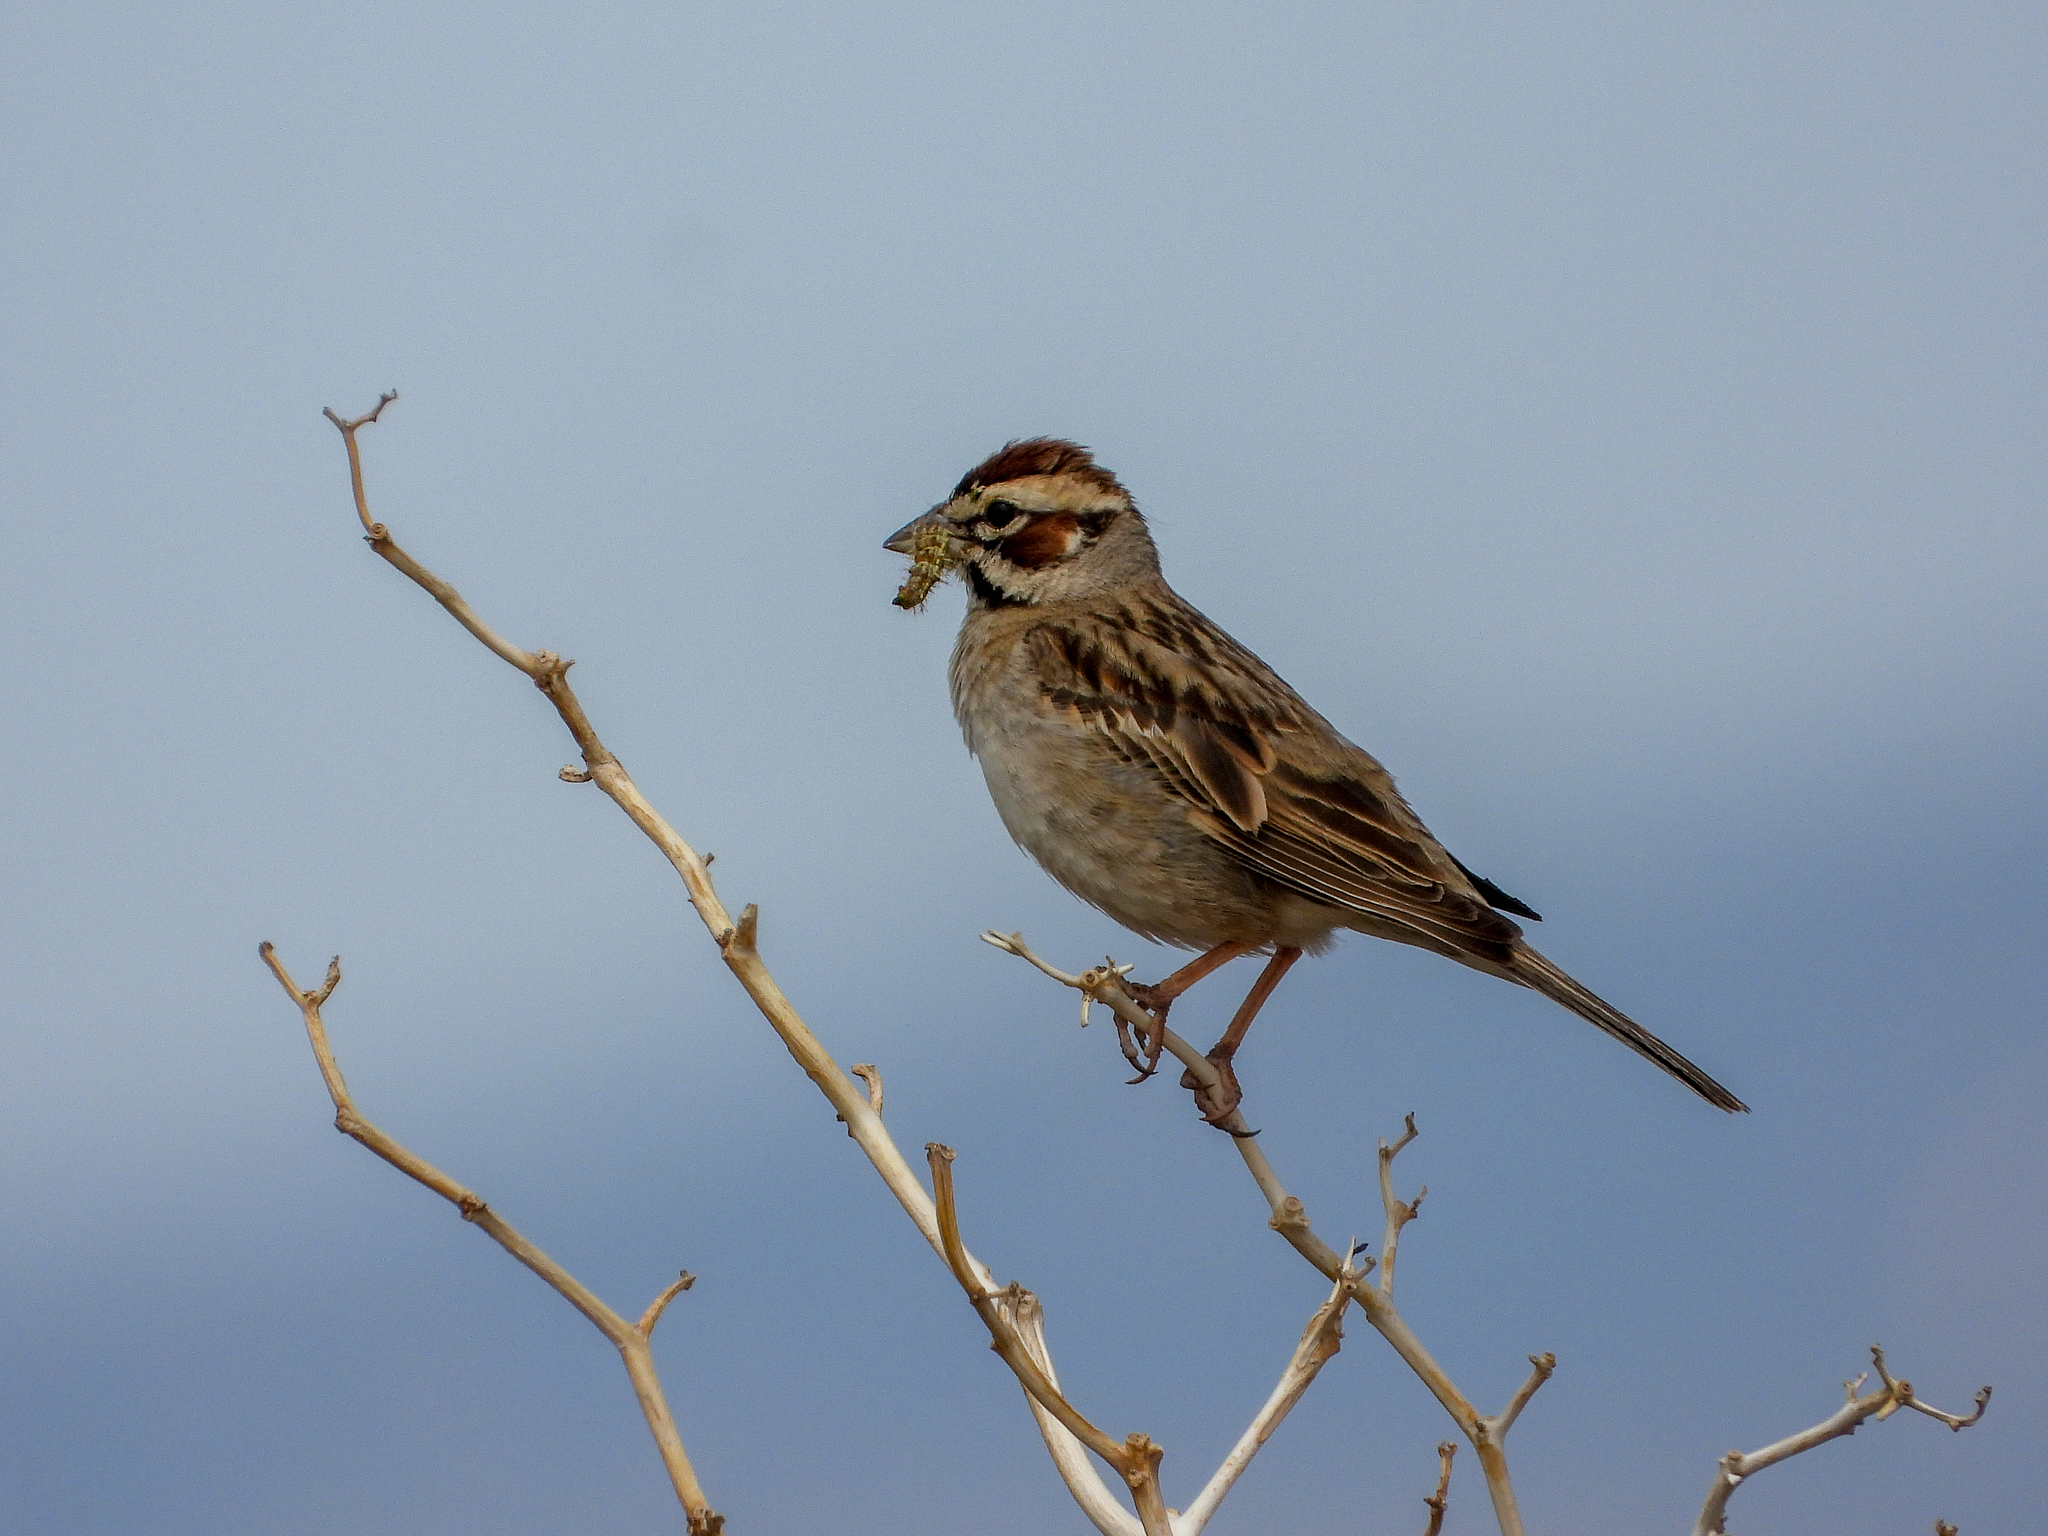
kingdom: Animalia
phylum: Chordata
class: Aves
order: Passeriformes
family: Passerellidae
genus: Chondestes
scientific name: Chondestes grammacus
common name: Lark sparrow
